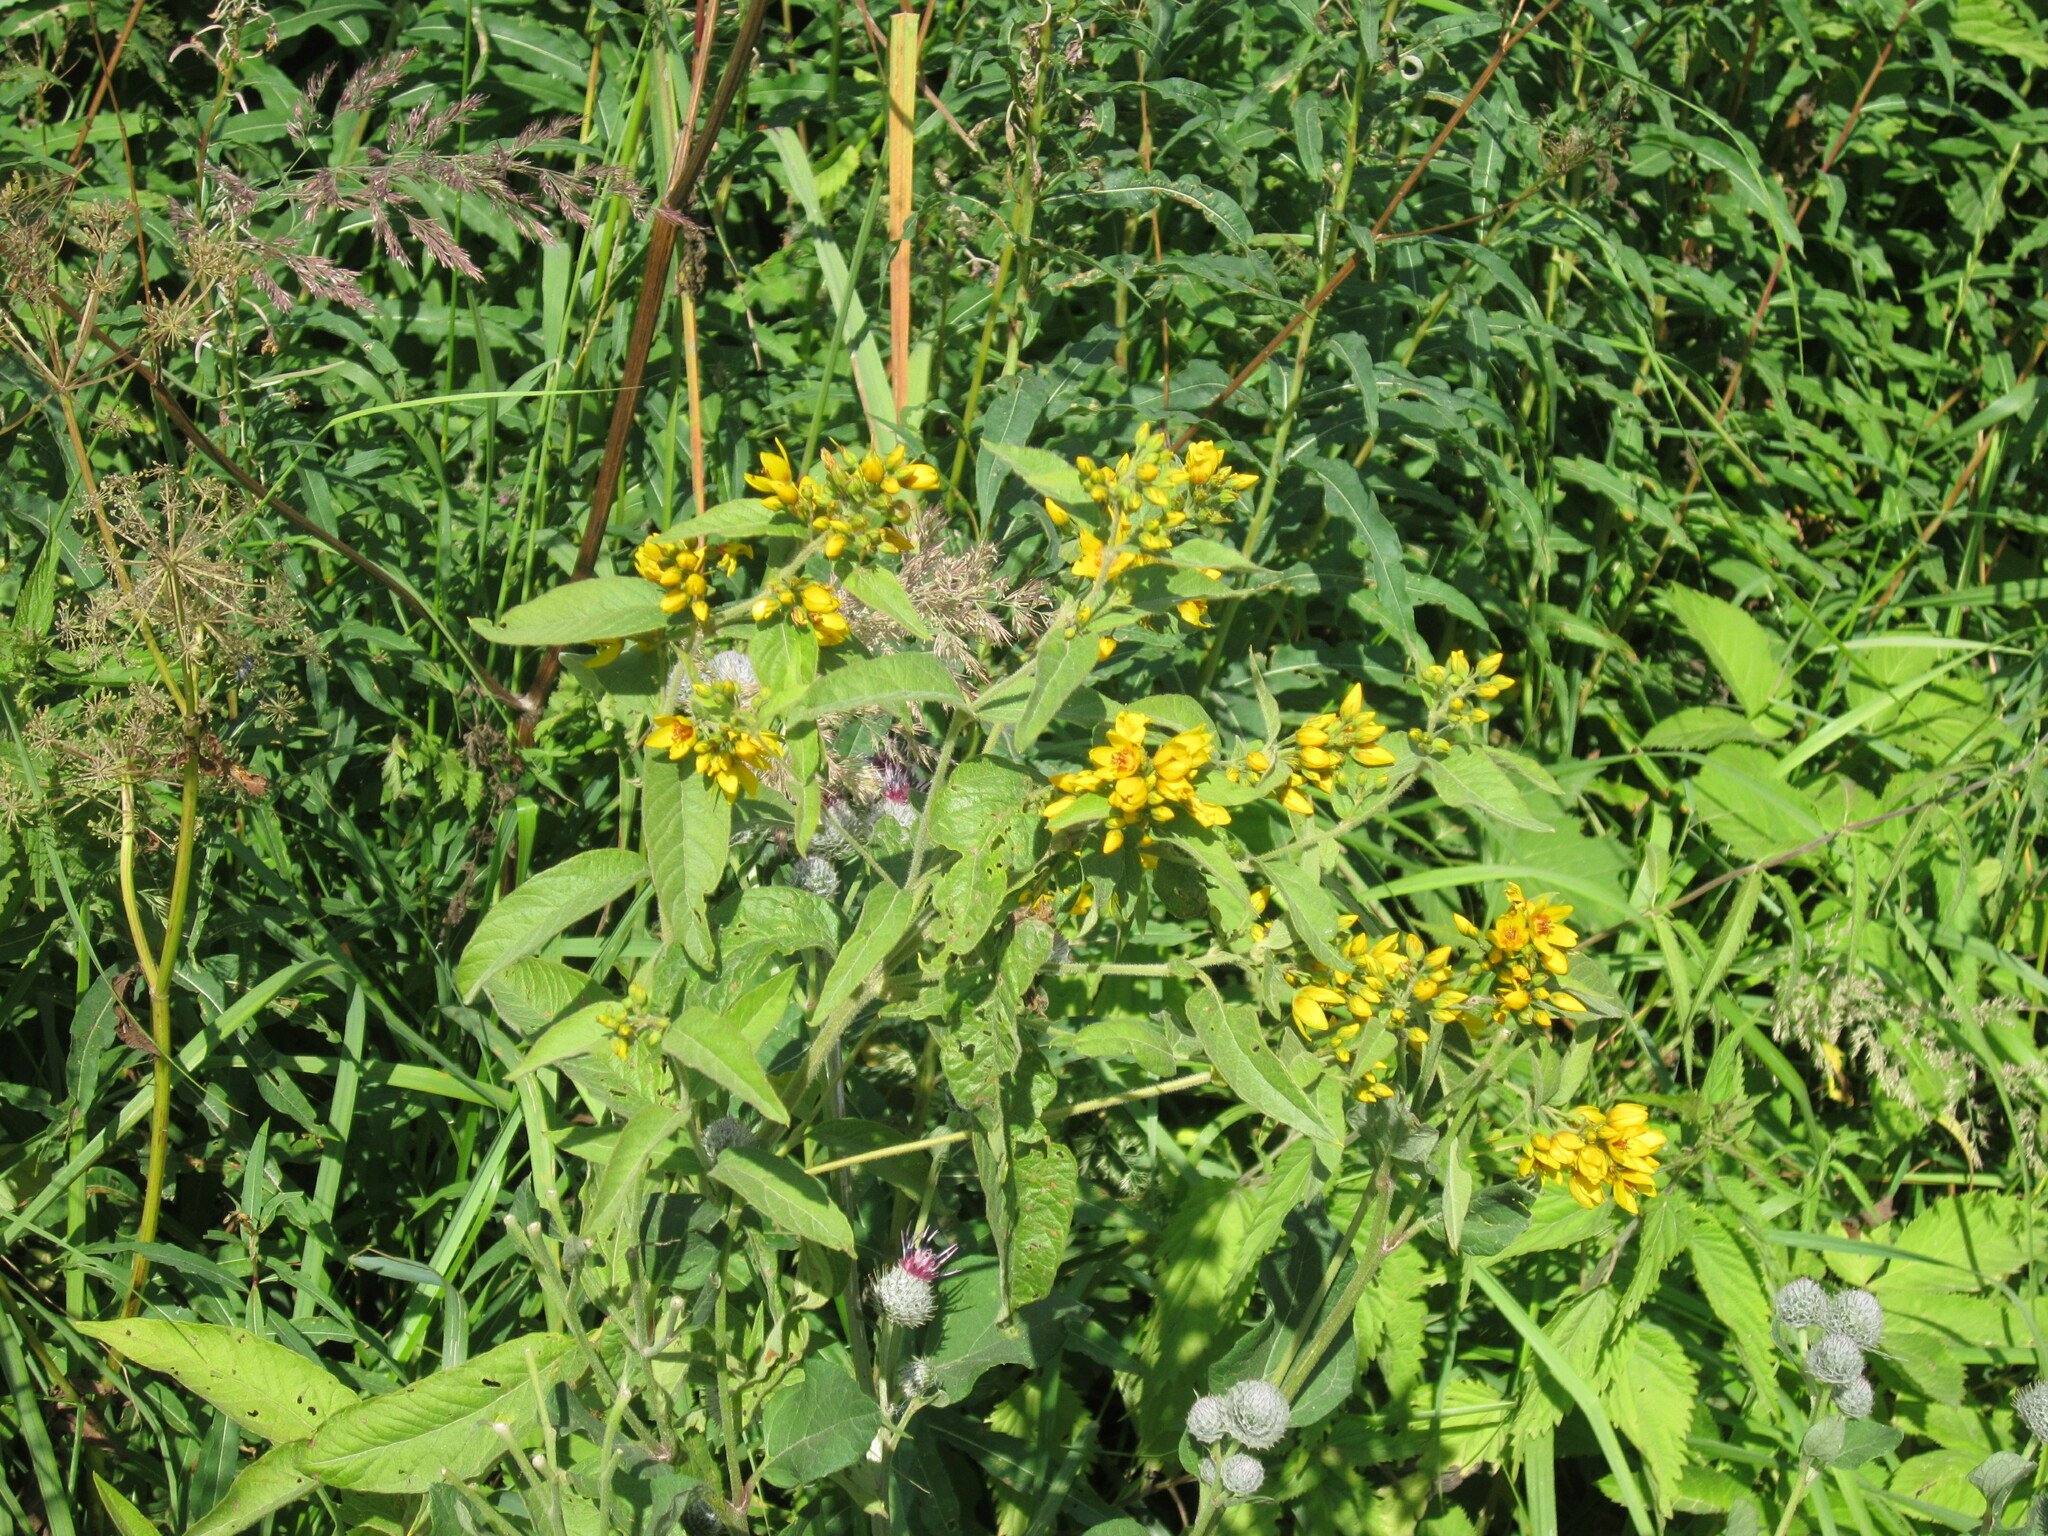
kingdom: Plantae
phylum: Tracheophyta
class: Magnoliopsida
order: Ericales
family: Primulaceae
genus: Lysimachia
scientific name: Lysimachia vulgaris
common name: Yellow loosestrife
